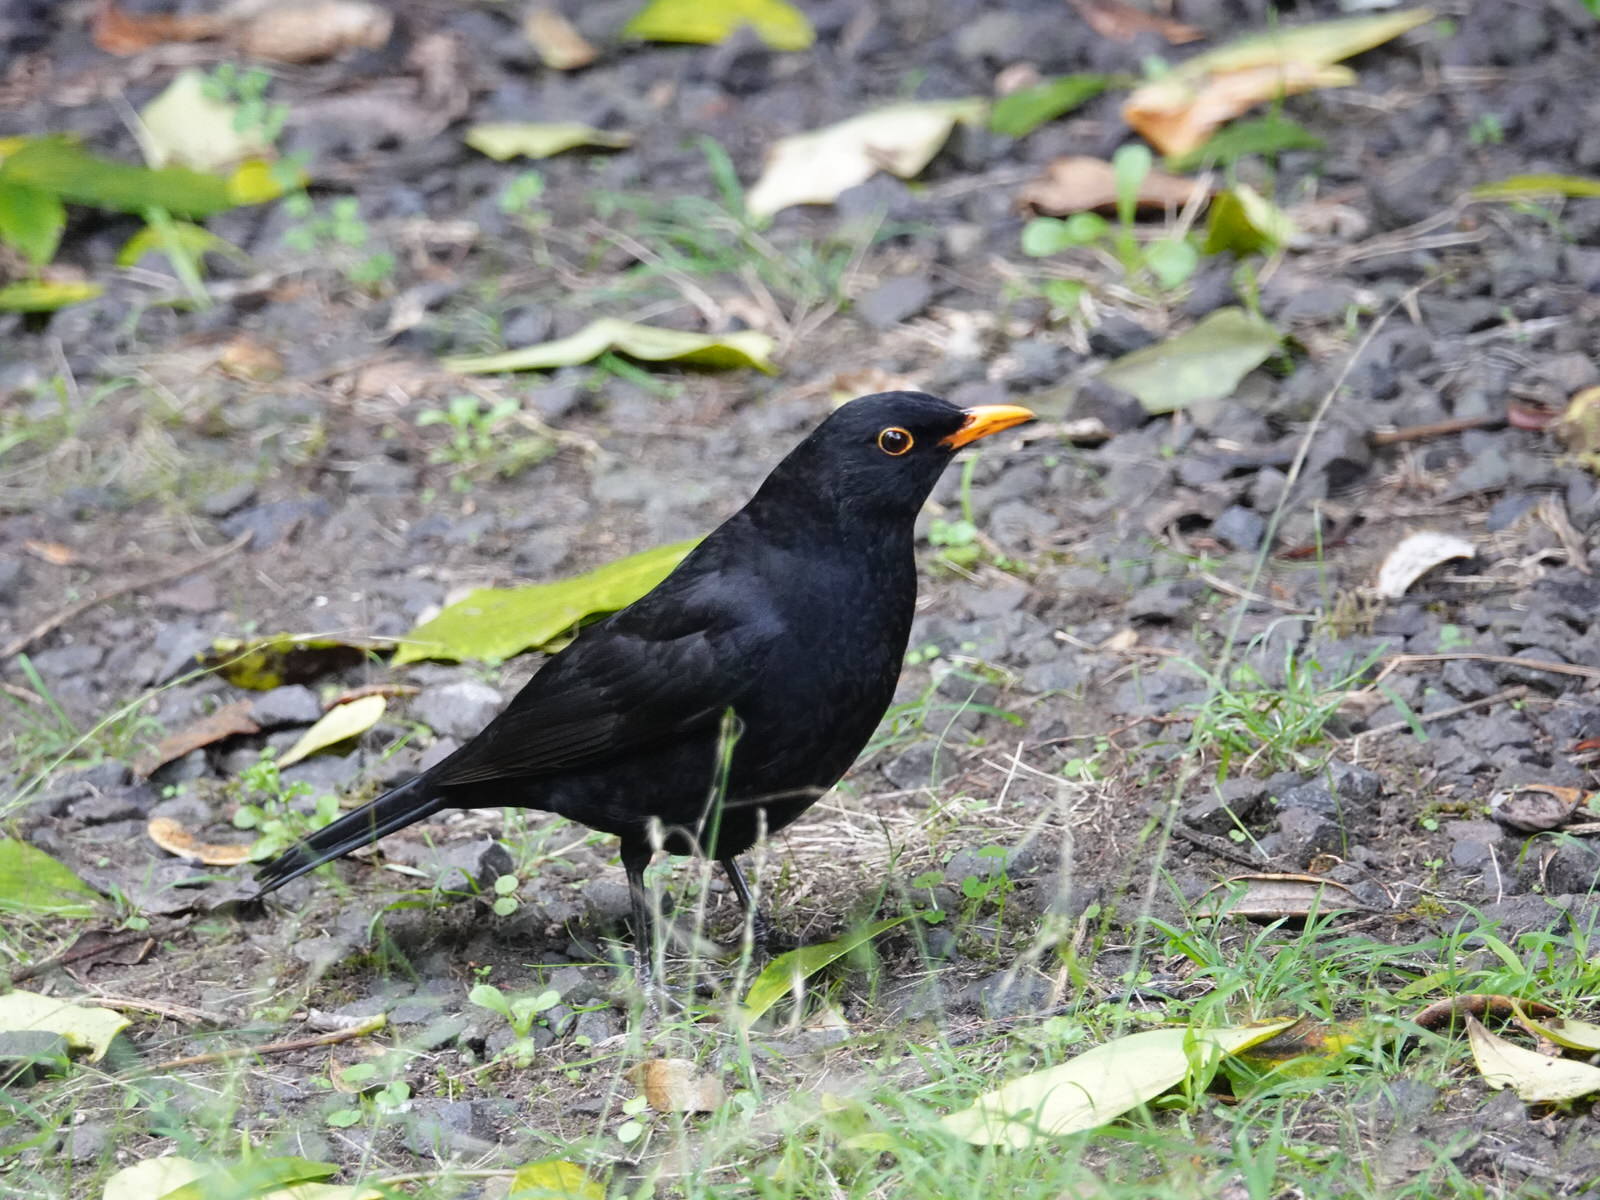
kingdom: Animalia
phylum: Chordata
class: Aves
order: Passeriformes
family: Turdidae
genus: Turdus
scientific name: Turdus merula
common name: Common blackbird
